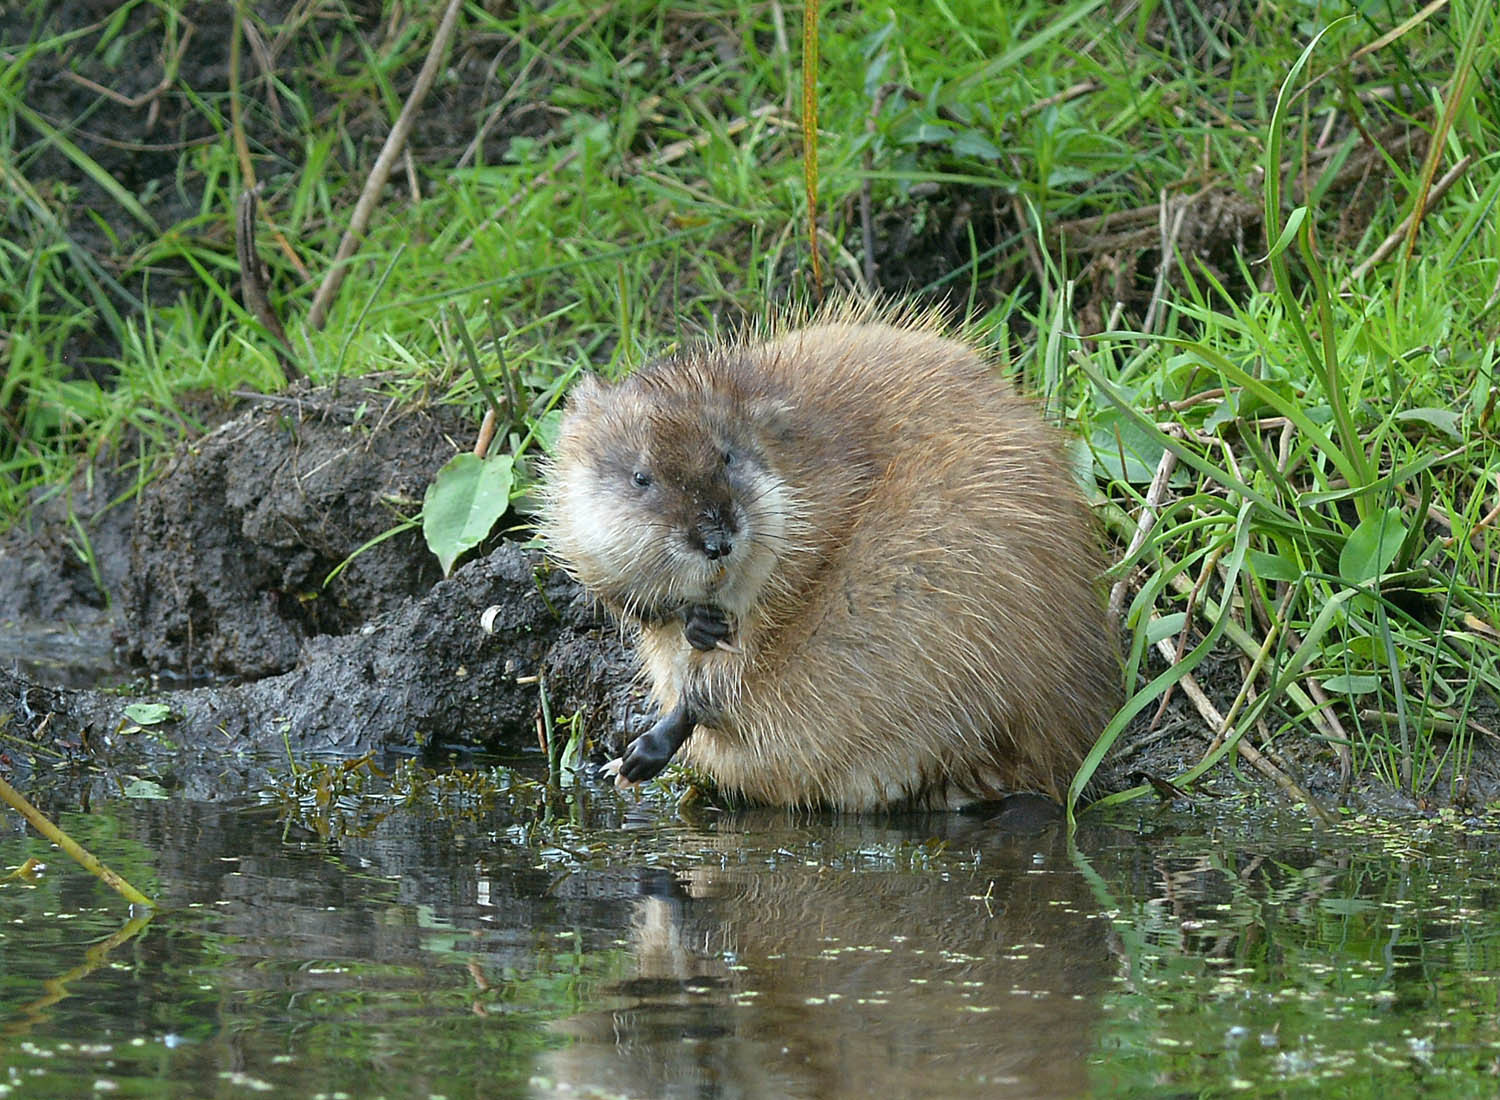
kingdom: Animalia
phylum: Chordata
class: Mammalia
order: Rodentia
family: Cricetidae
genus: Ondatra
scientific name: Ondatra zibethicus
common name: Muskrat
